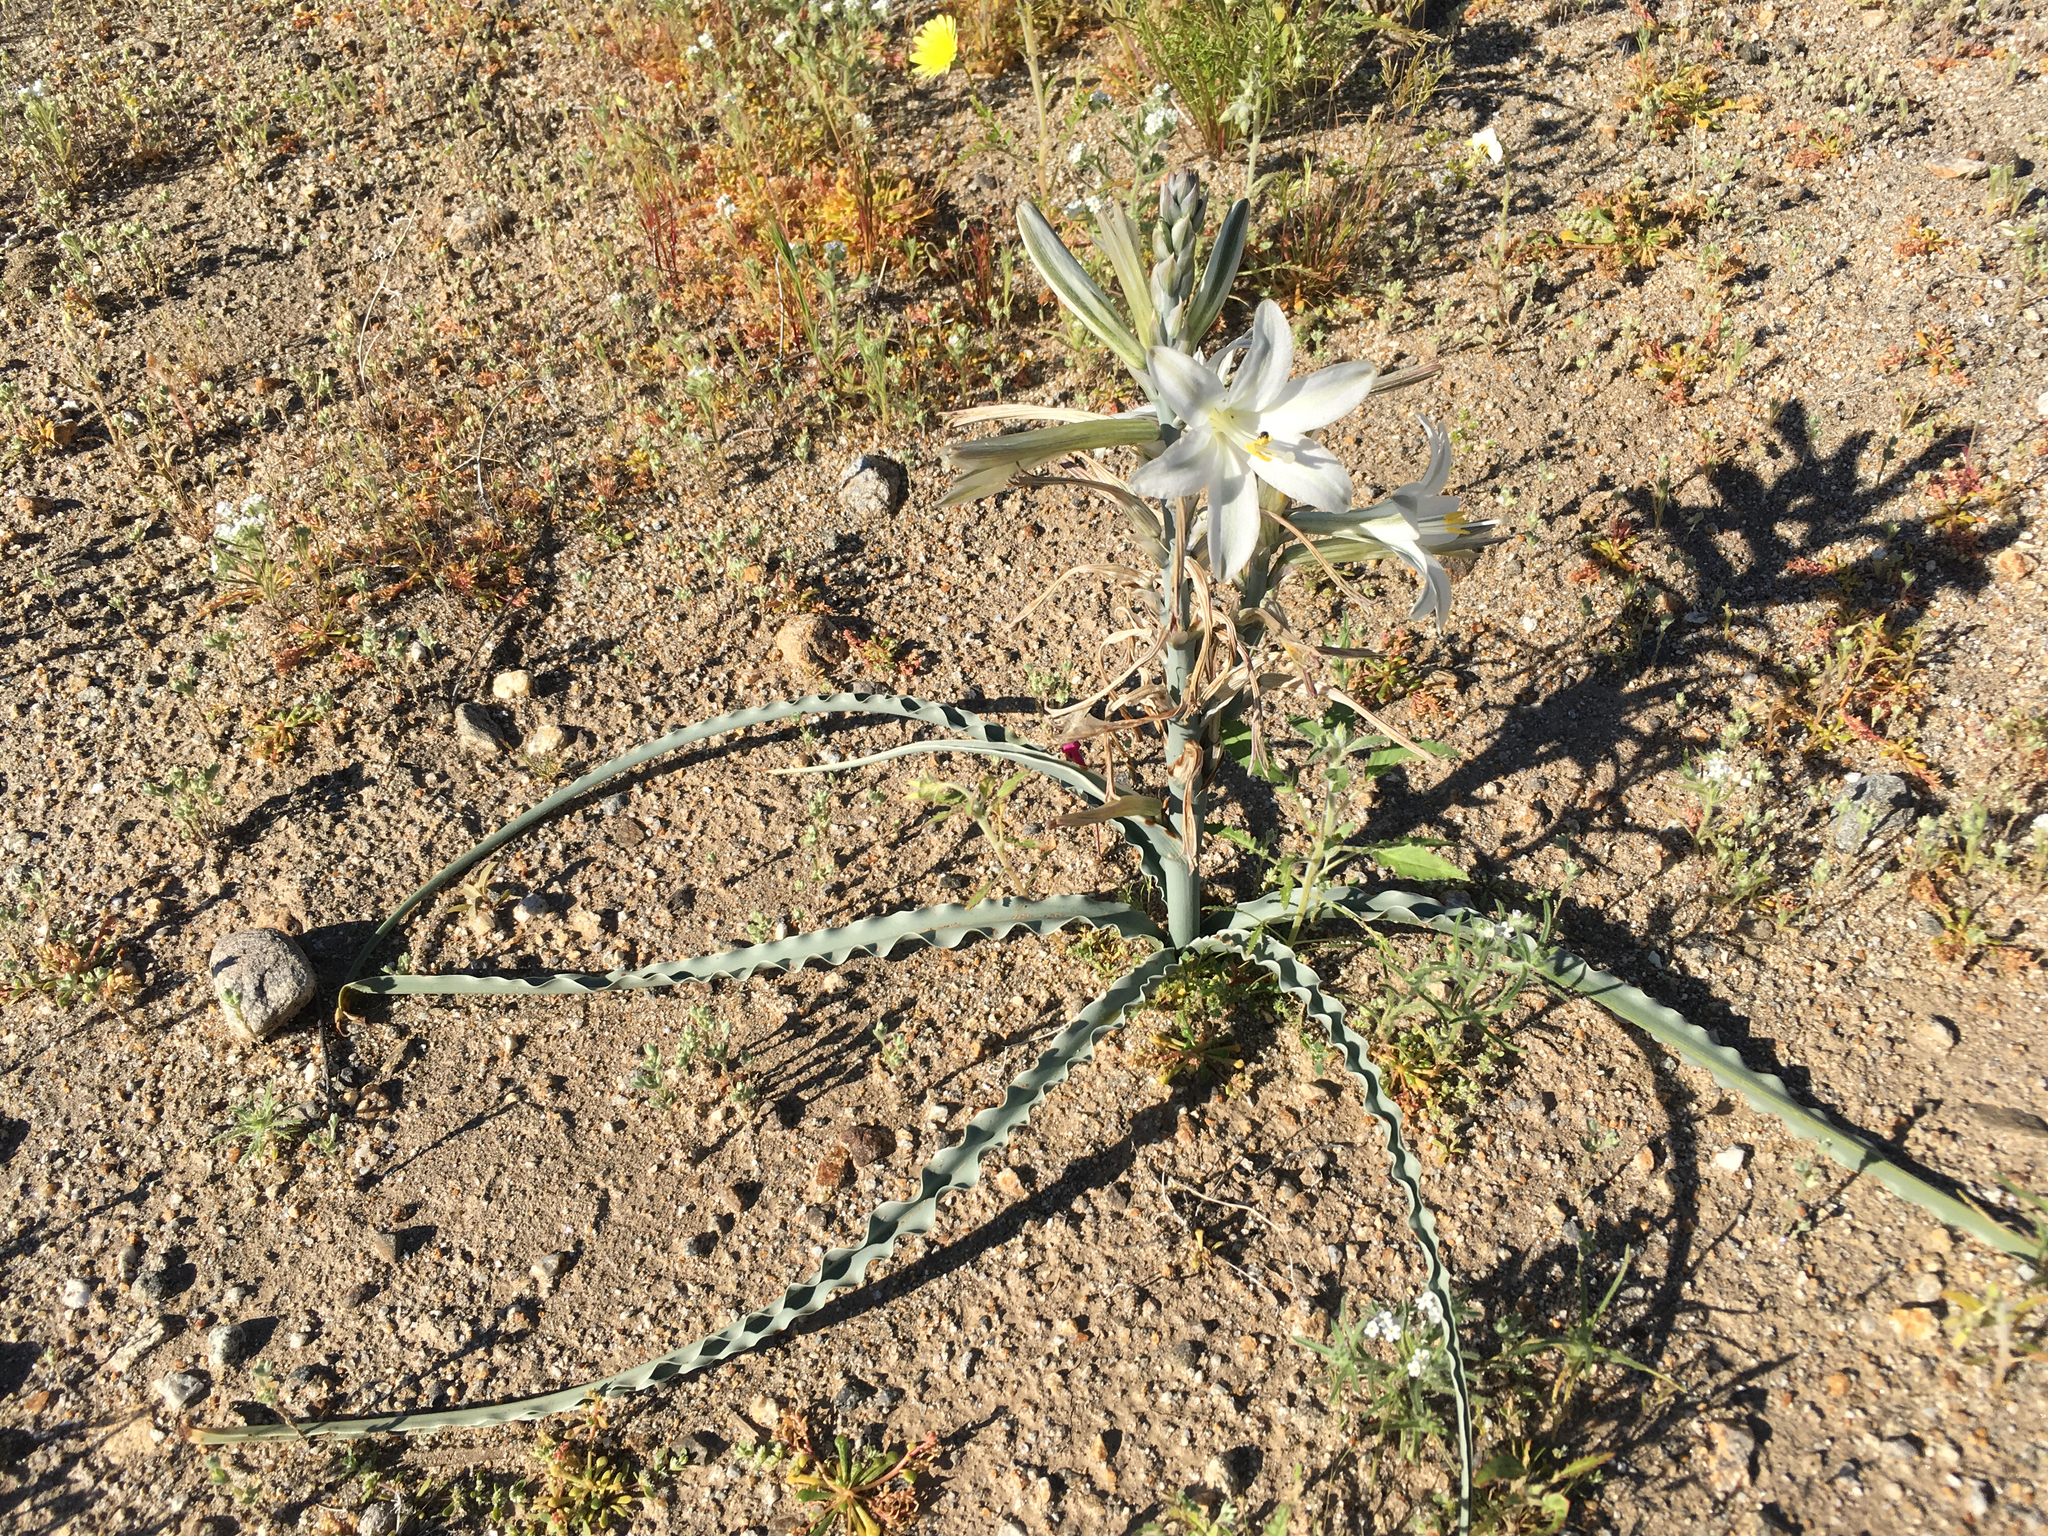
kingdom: Plantae
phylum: Tracheophyta
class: Liliopsida
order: Asparagales
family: Asparagaceae
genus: Hesperocallis
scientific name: Hesperocallis undulata
